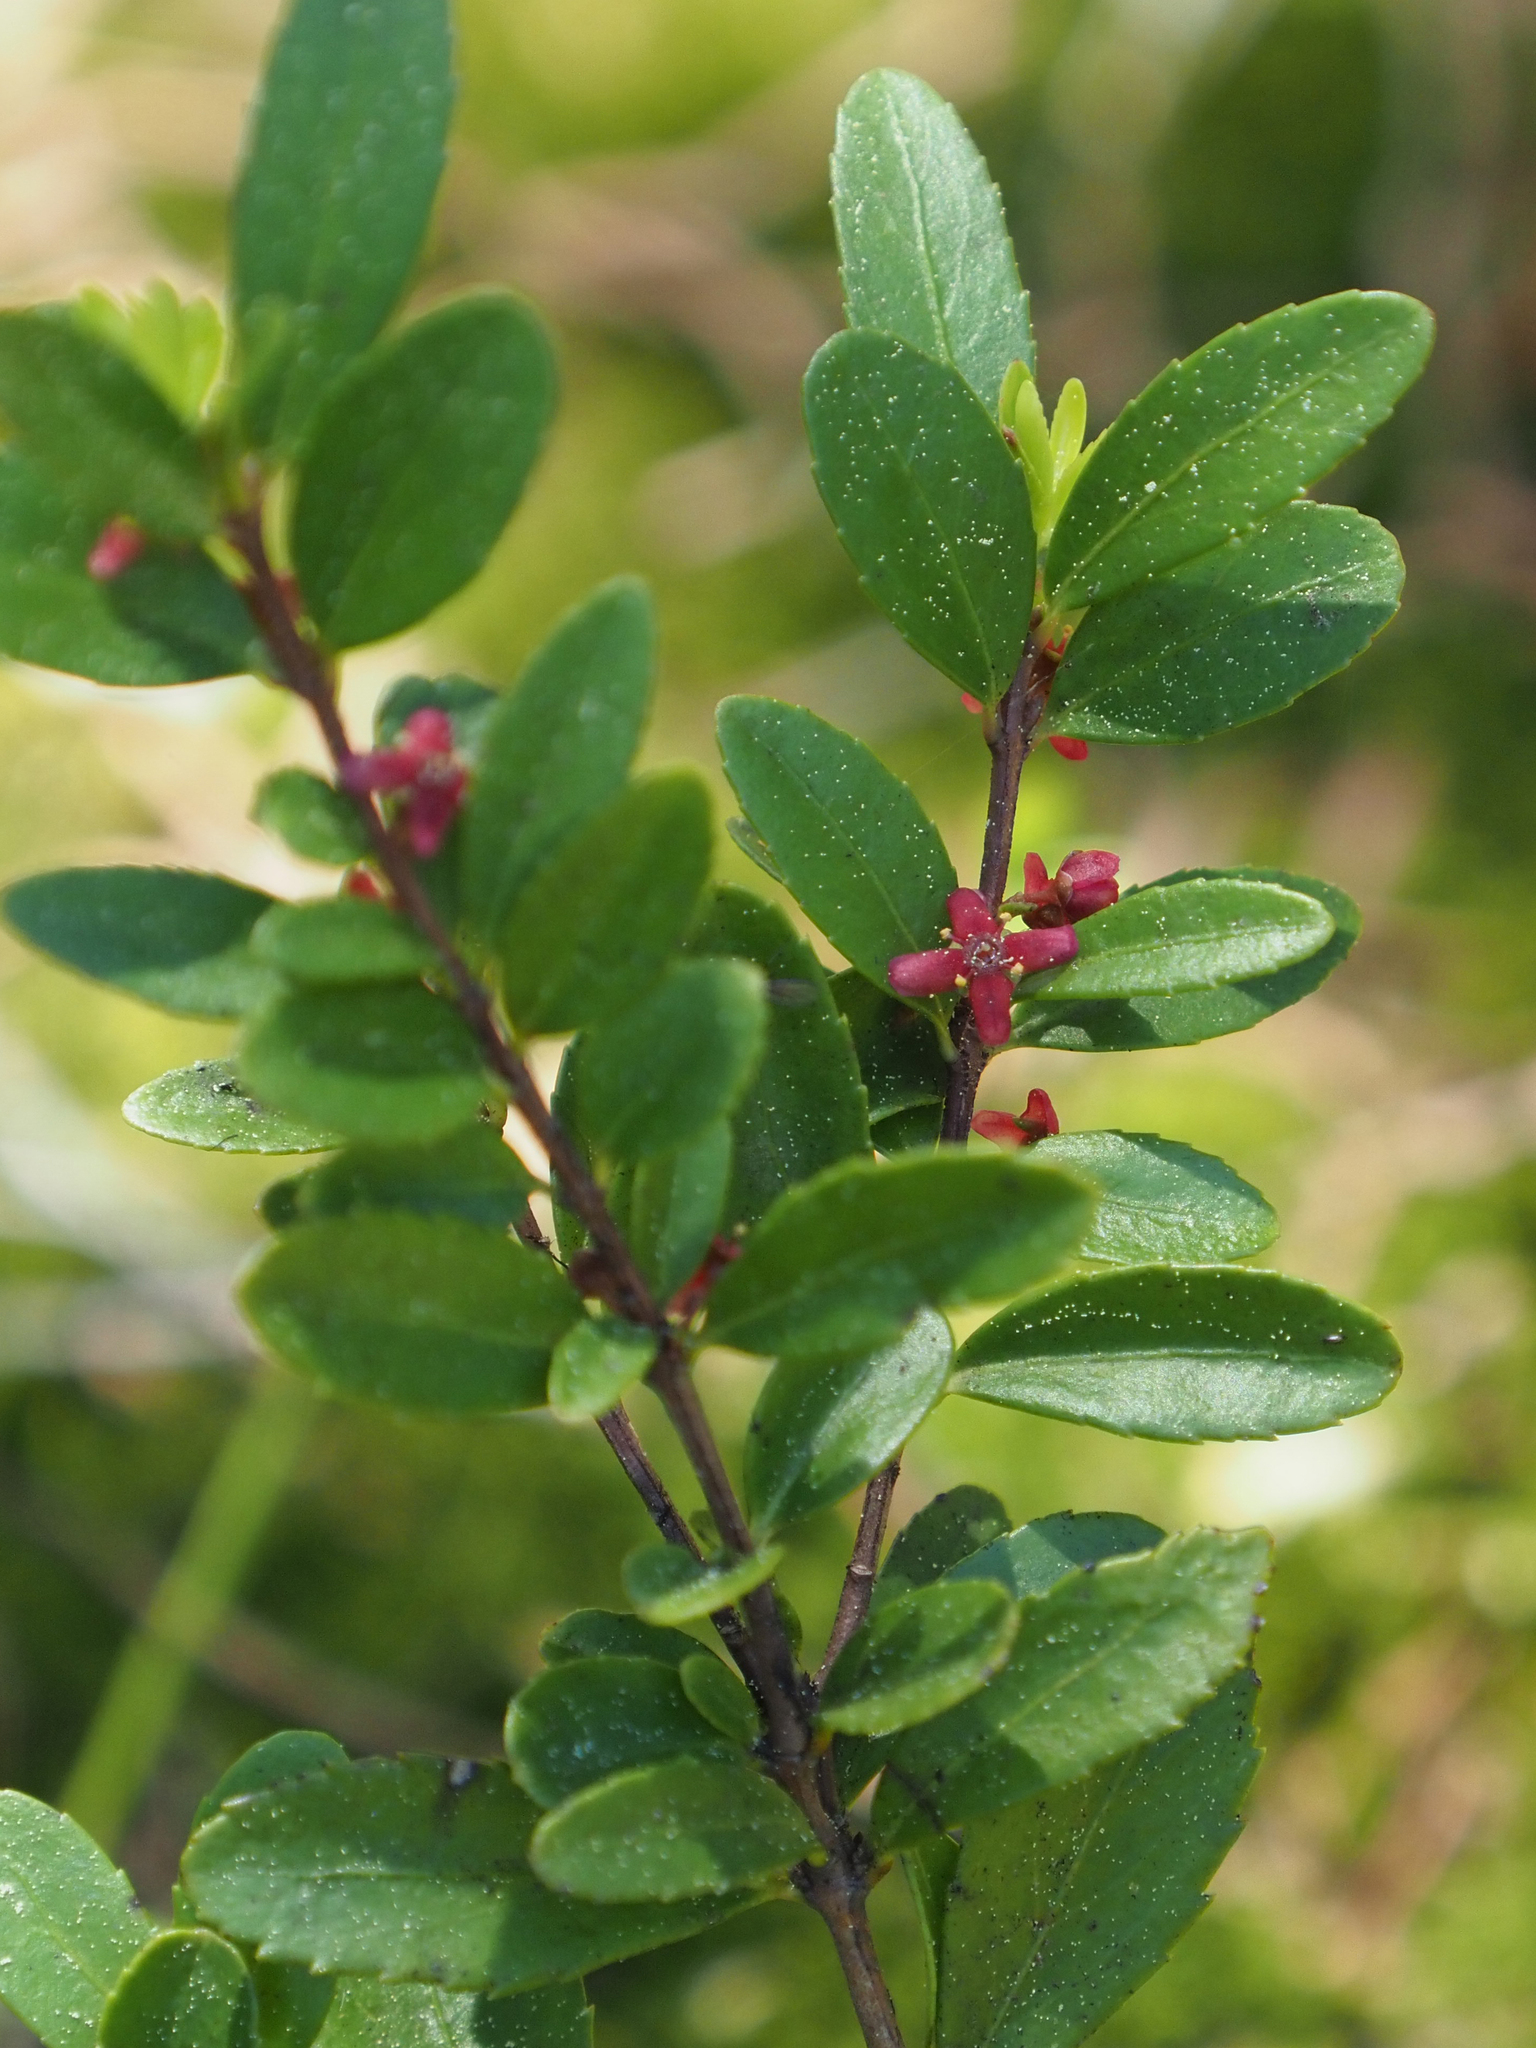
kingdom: Plantae
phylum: Tracheophyta
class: Magnoliopsida
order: Celastrales
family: Celastraceae
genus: Paxistima
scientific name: Paxistima myrsinites
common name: Mountain-lover
